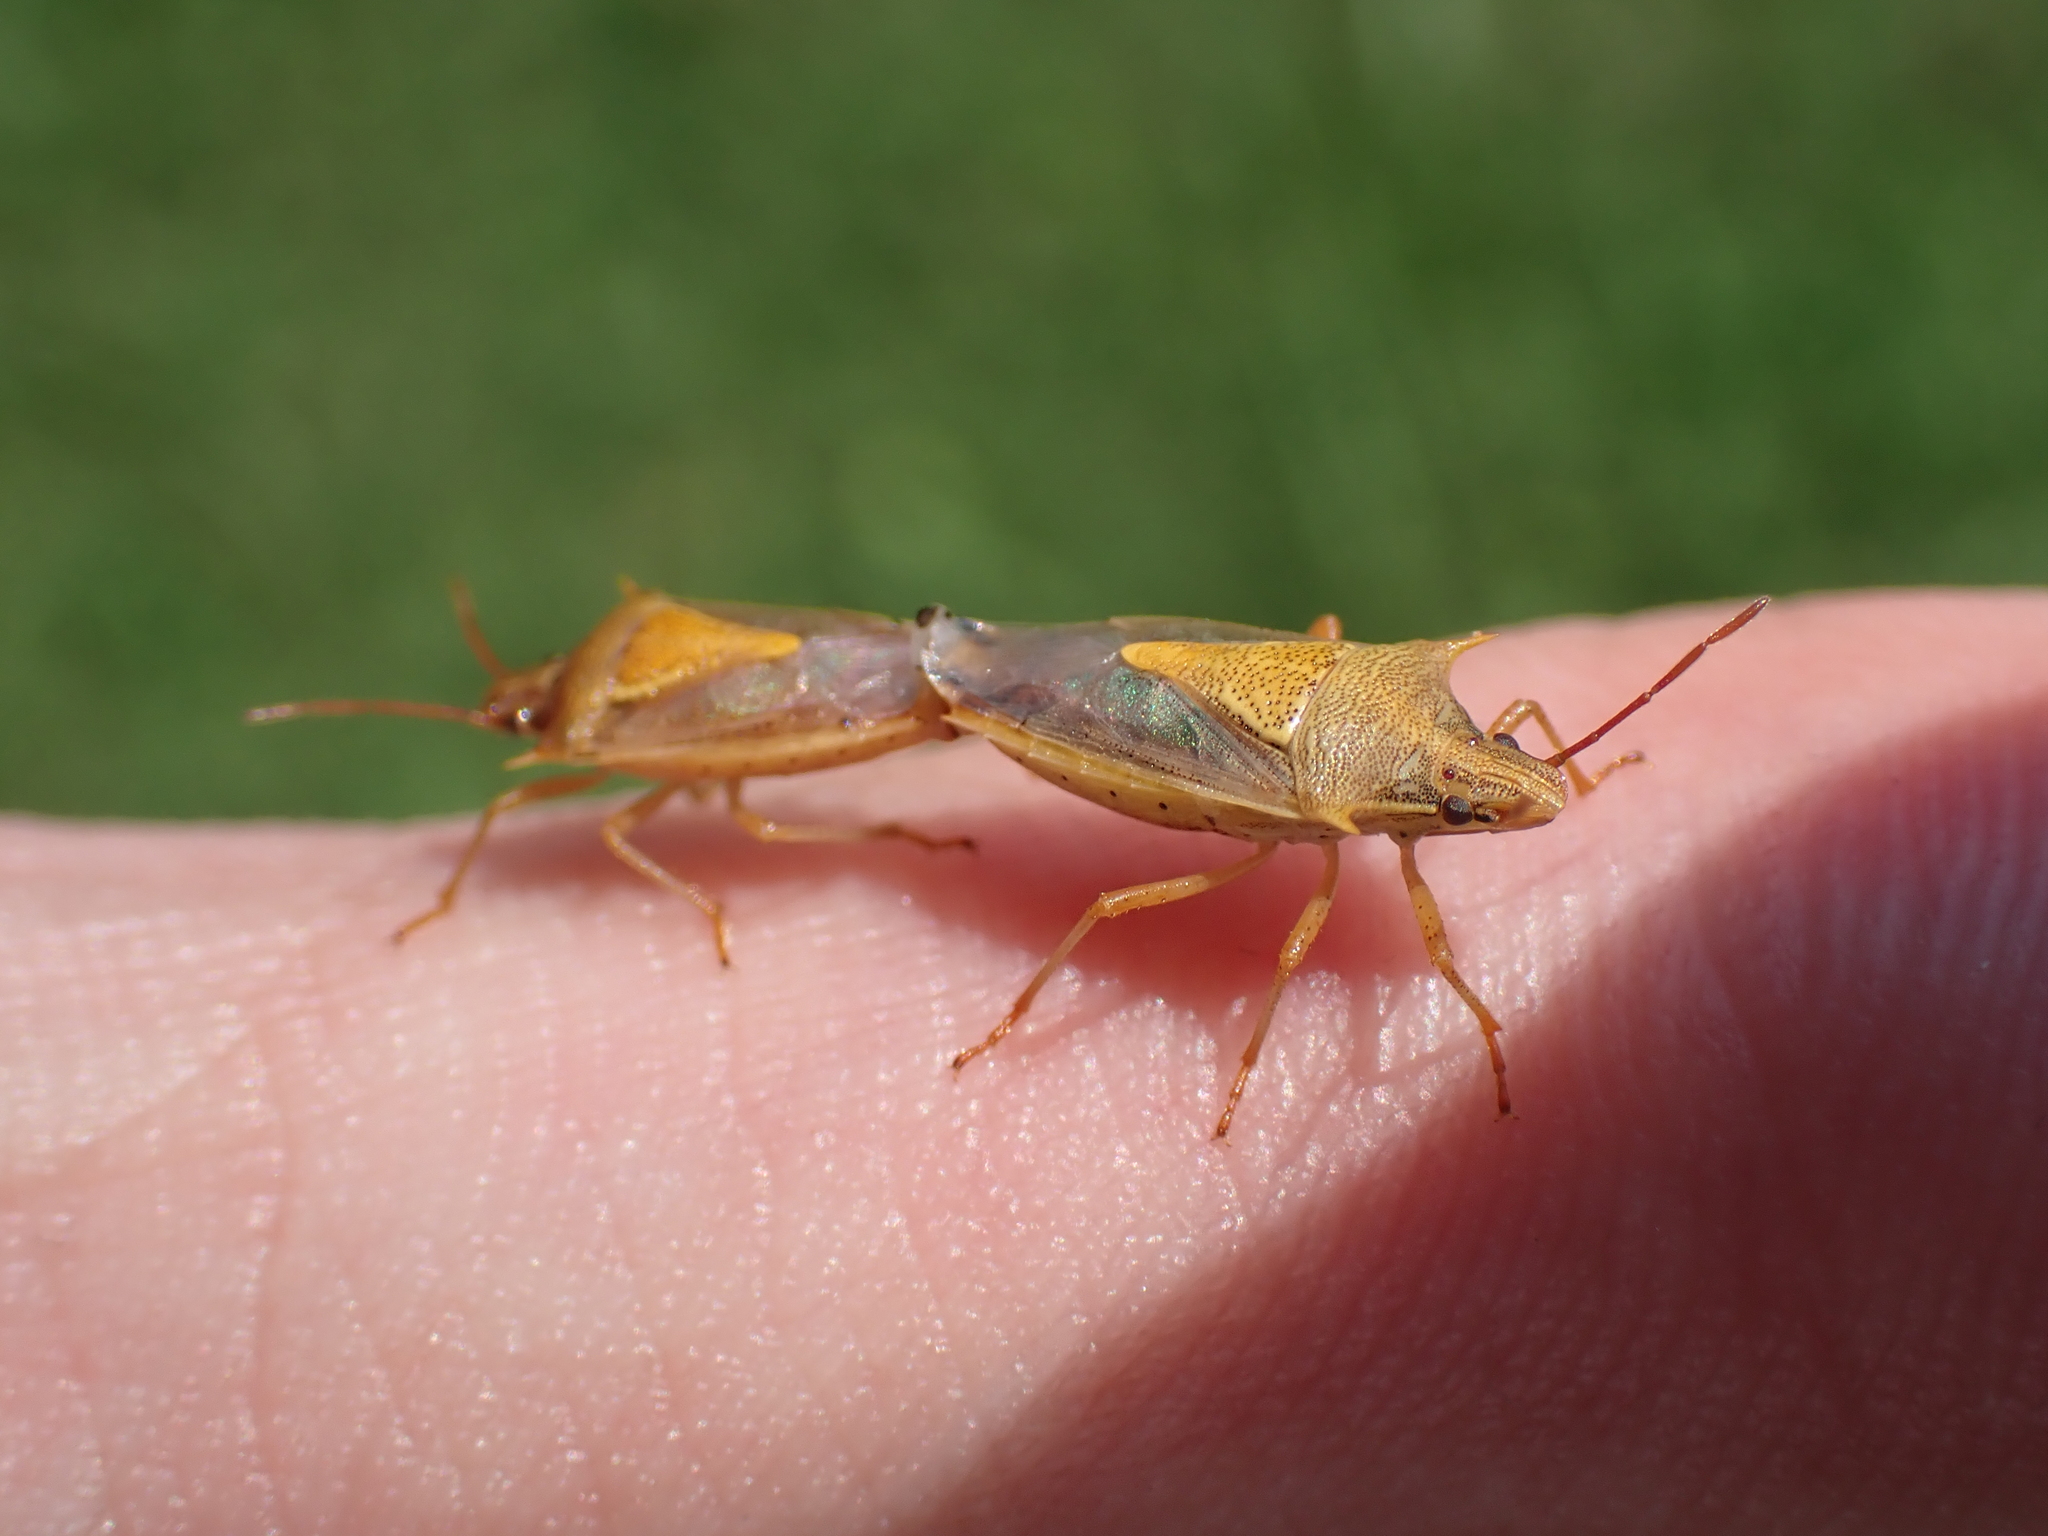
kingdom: Animalia
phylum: Arthropoda
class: Insecta
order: Hemiptera
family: Pentatomidae
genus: Oebalus
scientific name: Oebalus pugnax
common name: Rice stink bug
